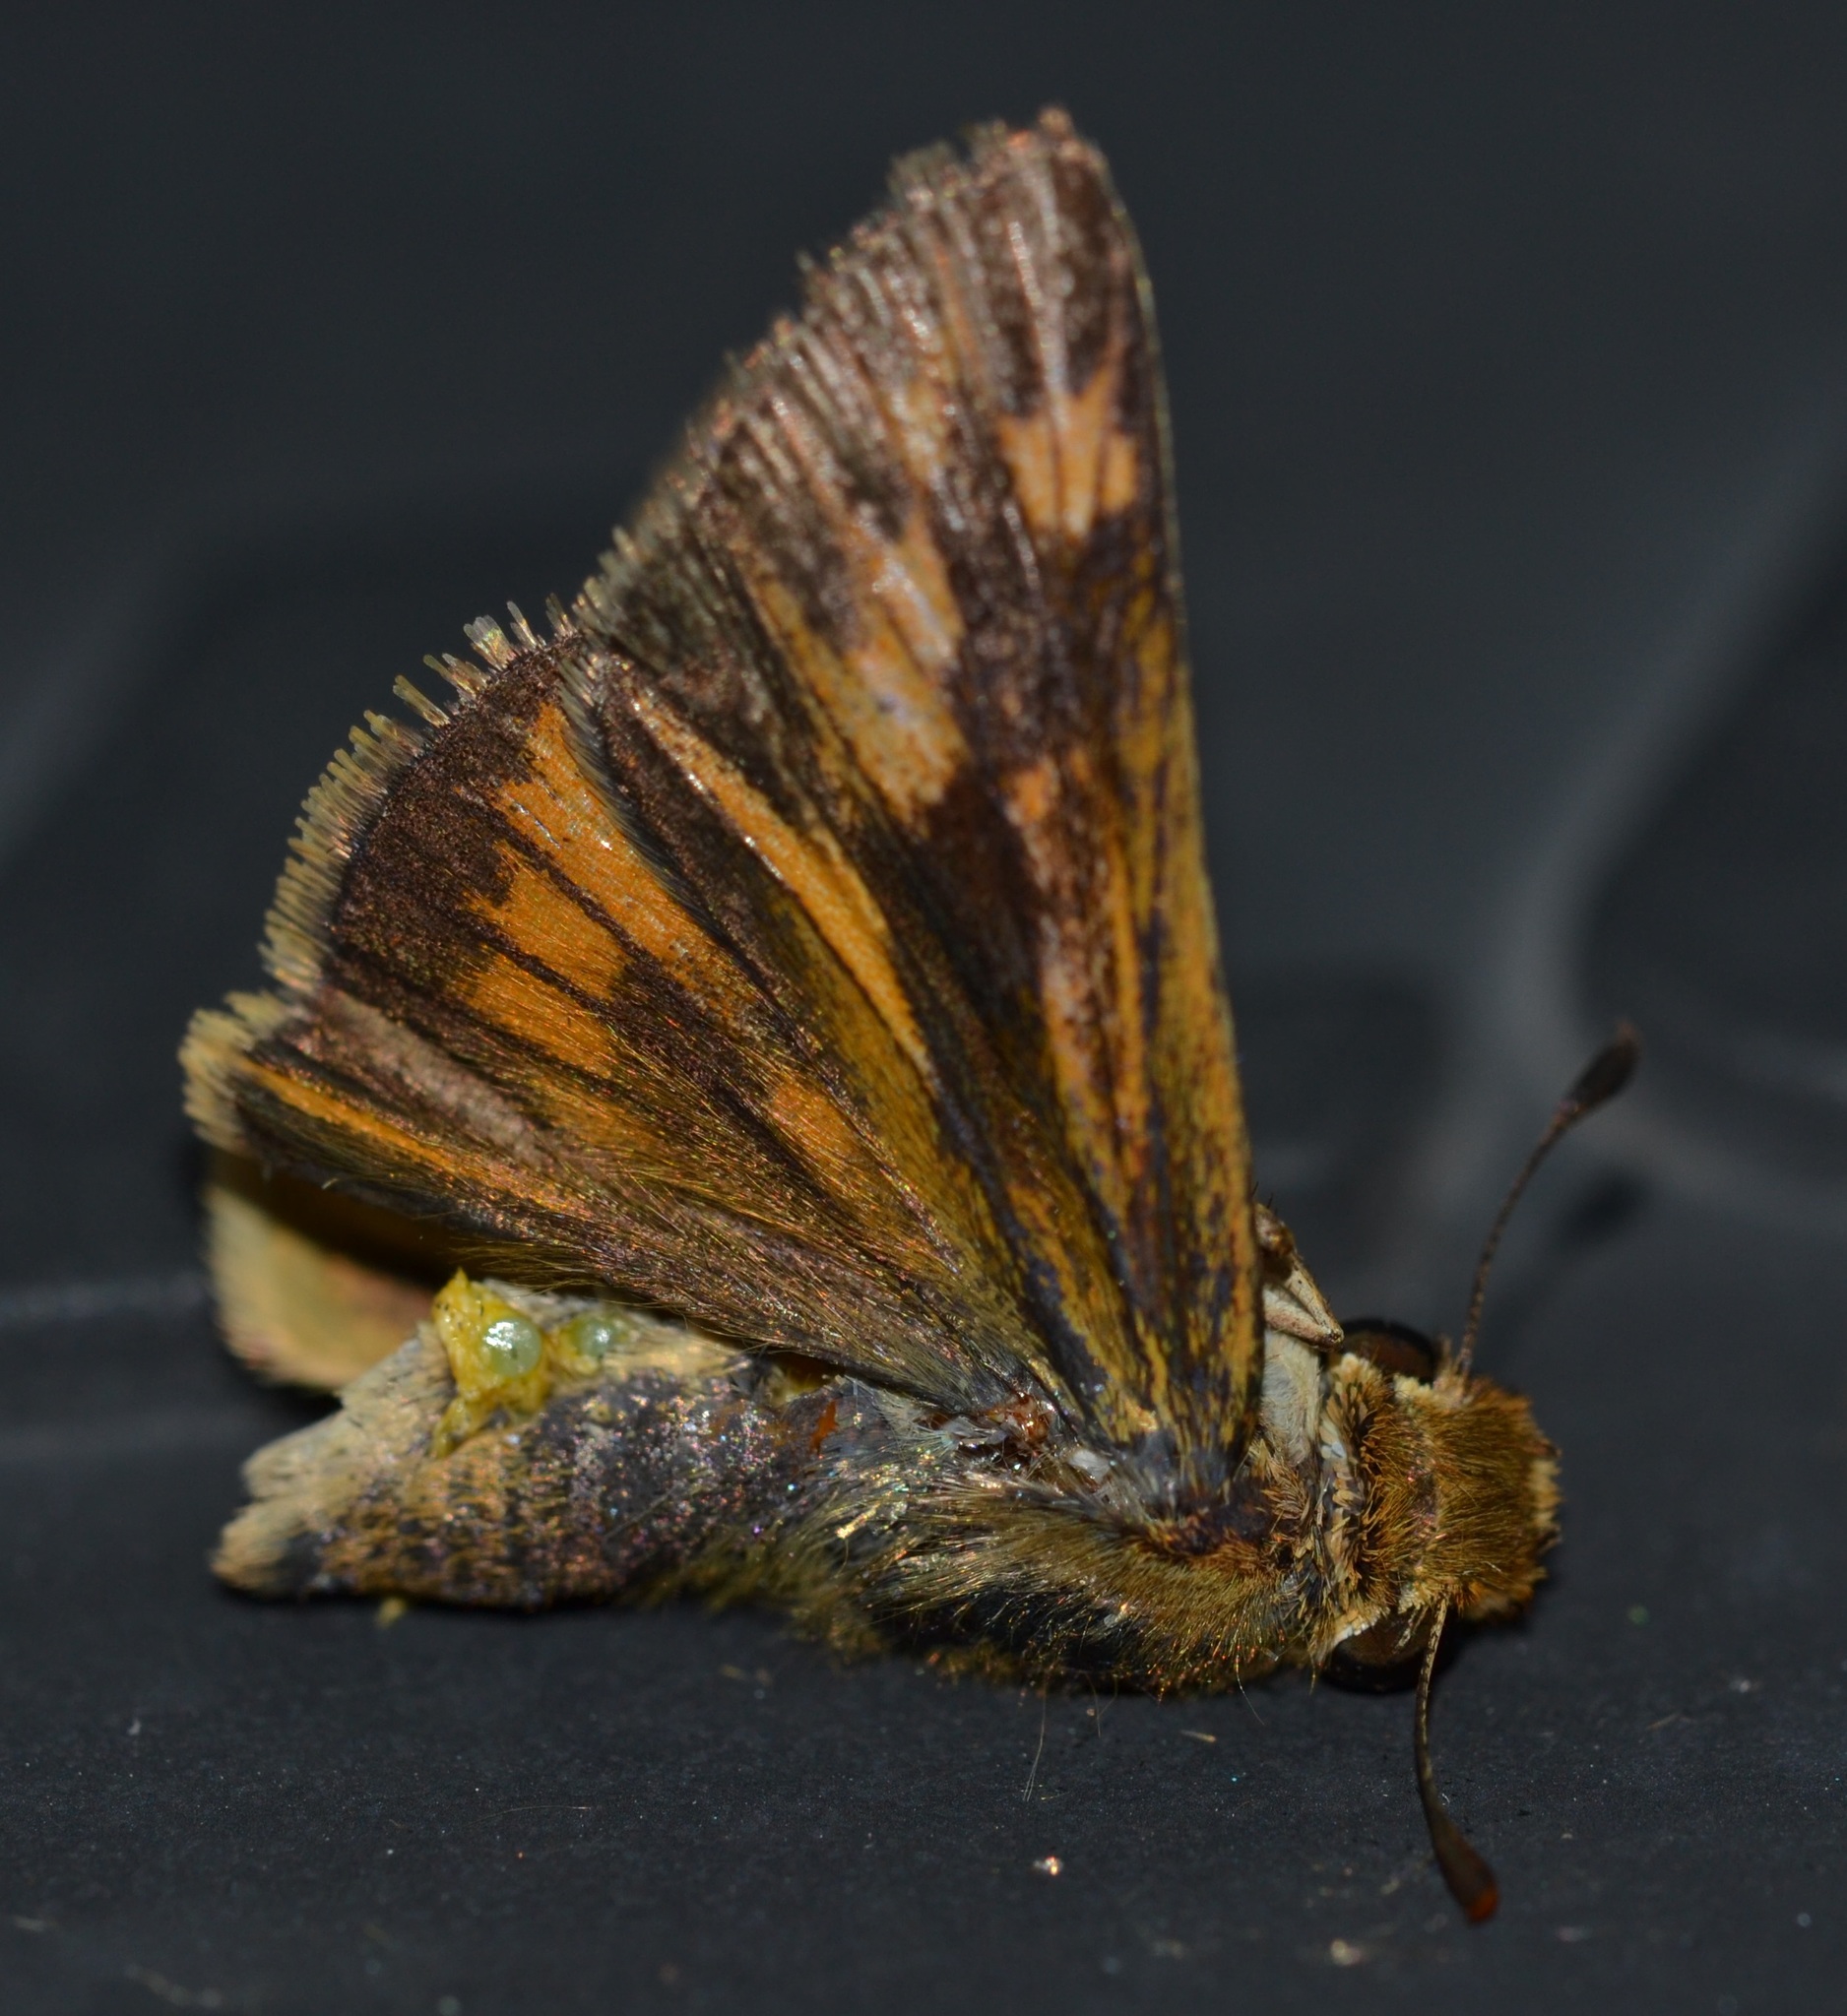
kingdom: Animalia
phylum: Arthropoda
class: Insecta
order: Lepidoptera
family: Hesperiidae
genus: Hylephila
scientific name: Hylephila phyleus
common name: Fiery skipper
